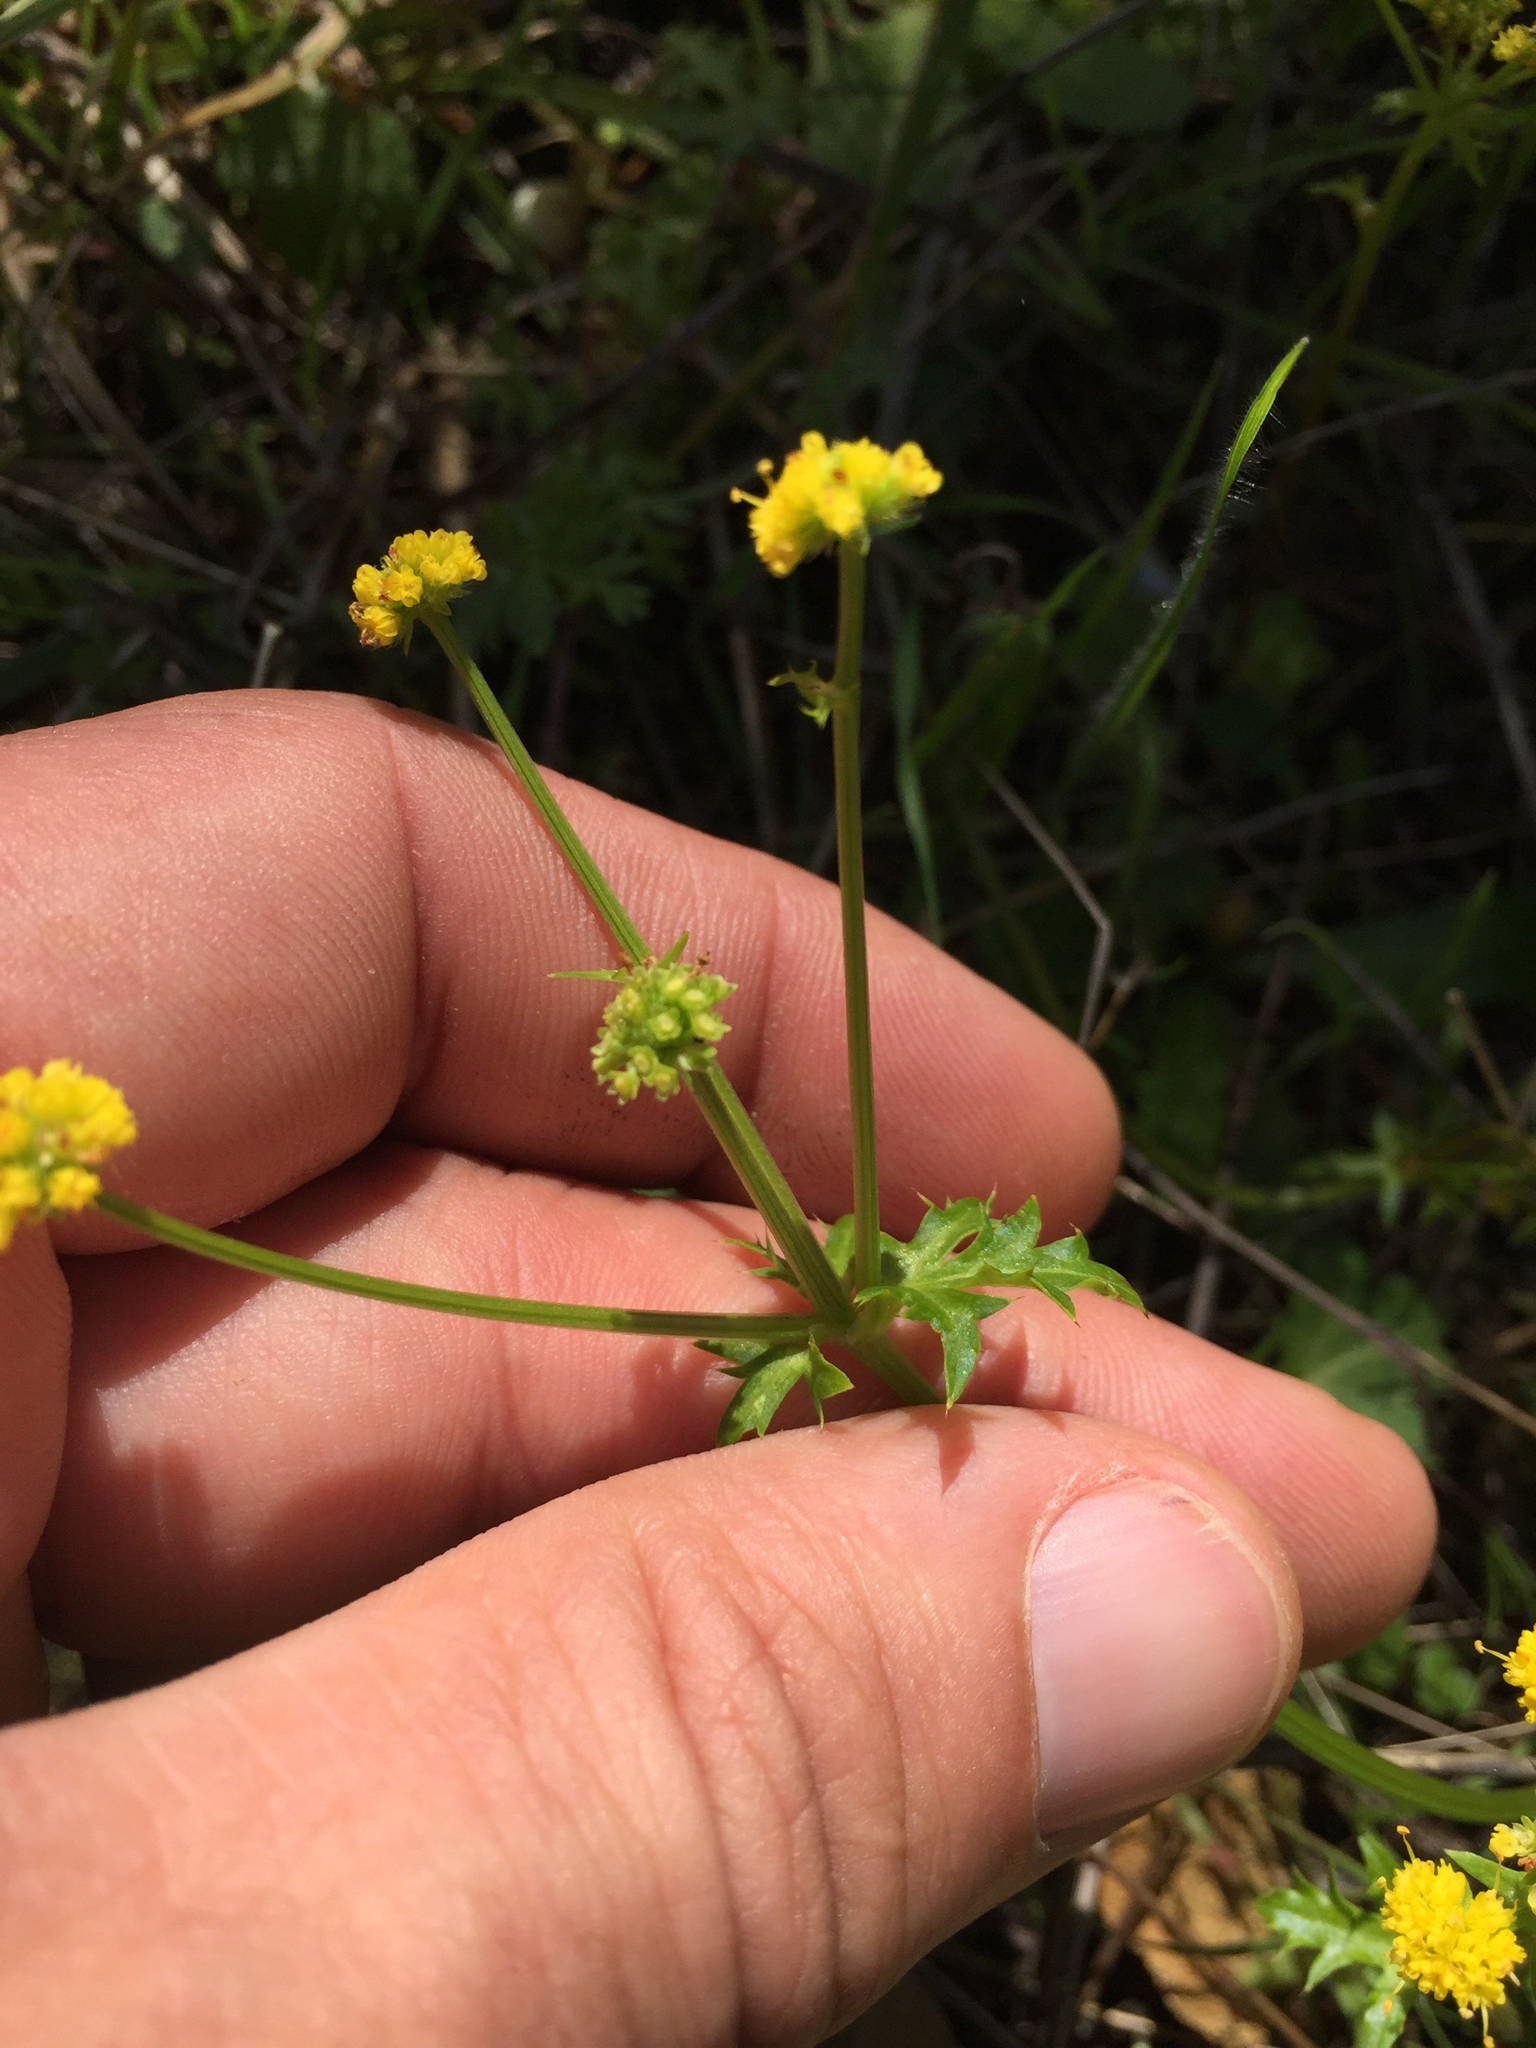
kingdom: Plantae
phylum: Tracheophyta
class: Magnoliopsida
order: Apiales
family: Apiaceae
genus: Sanicula
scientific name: Sanicula laciniata
